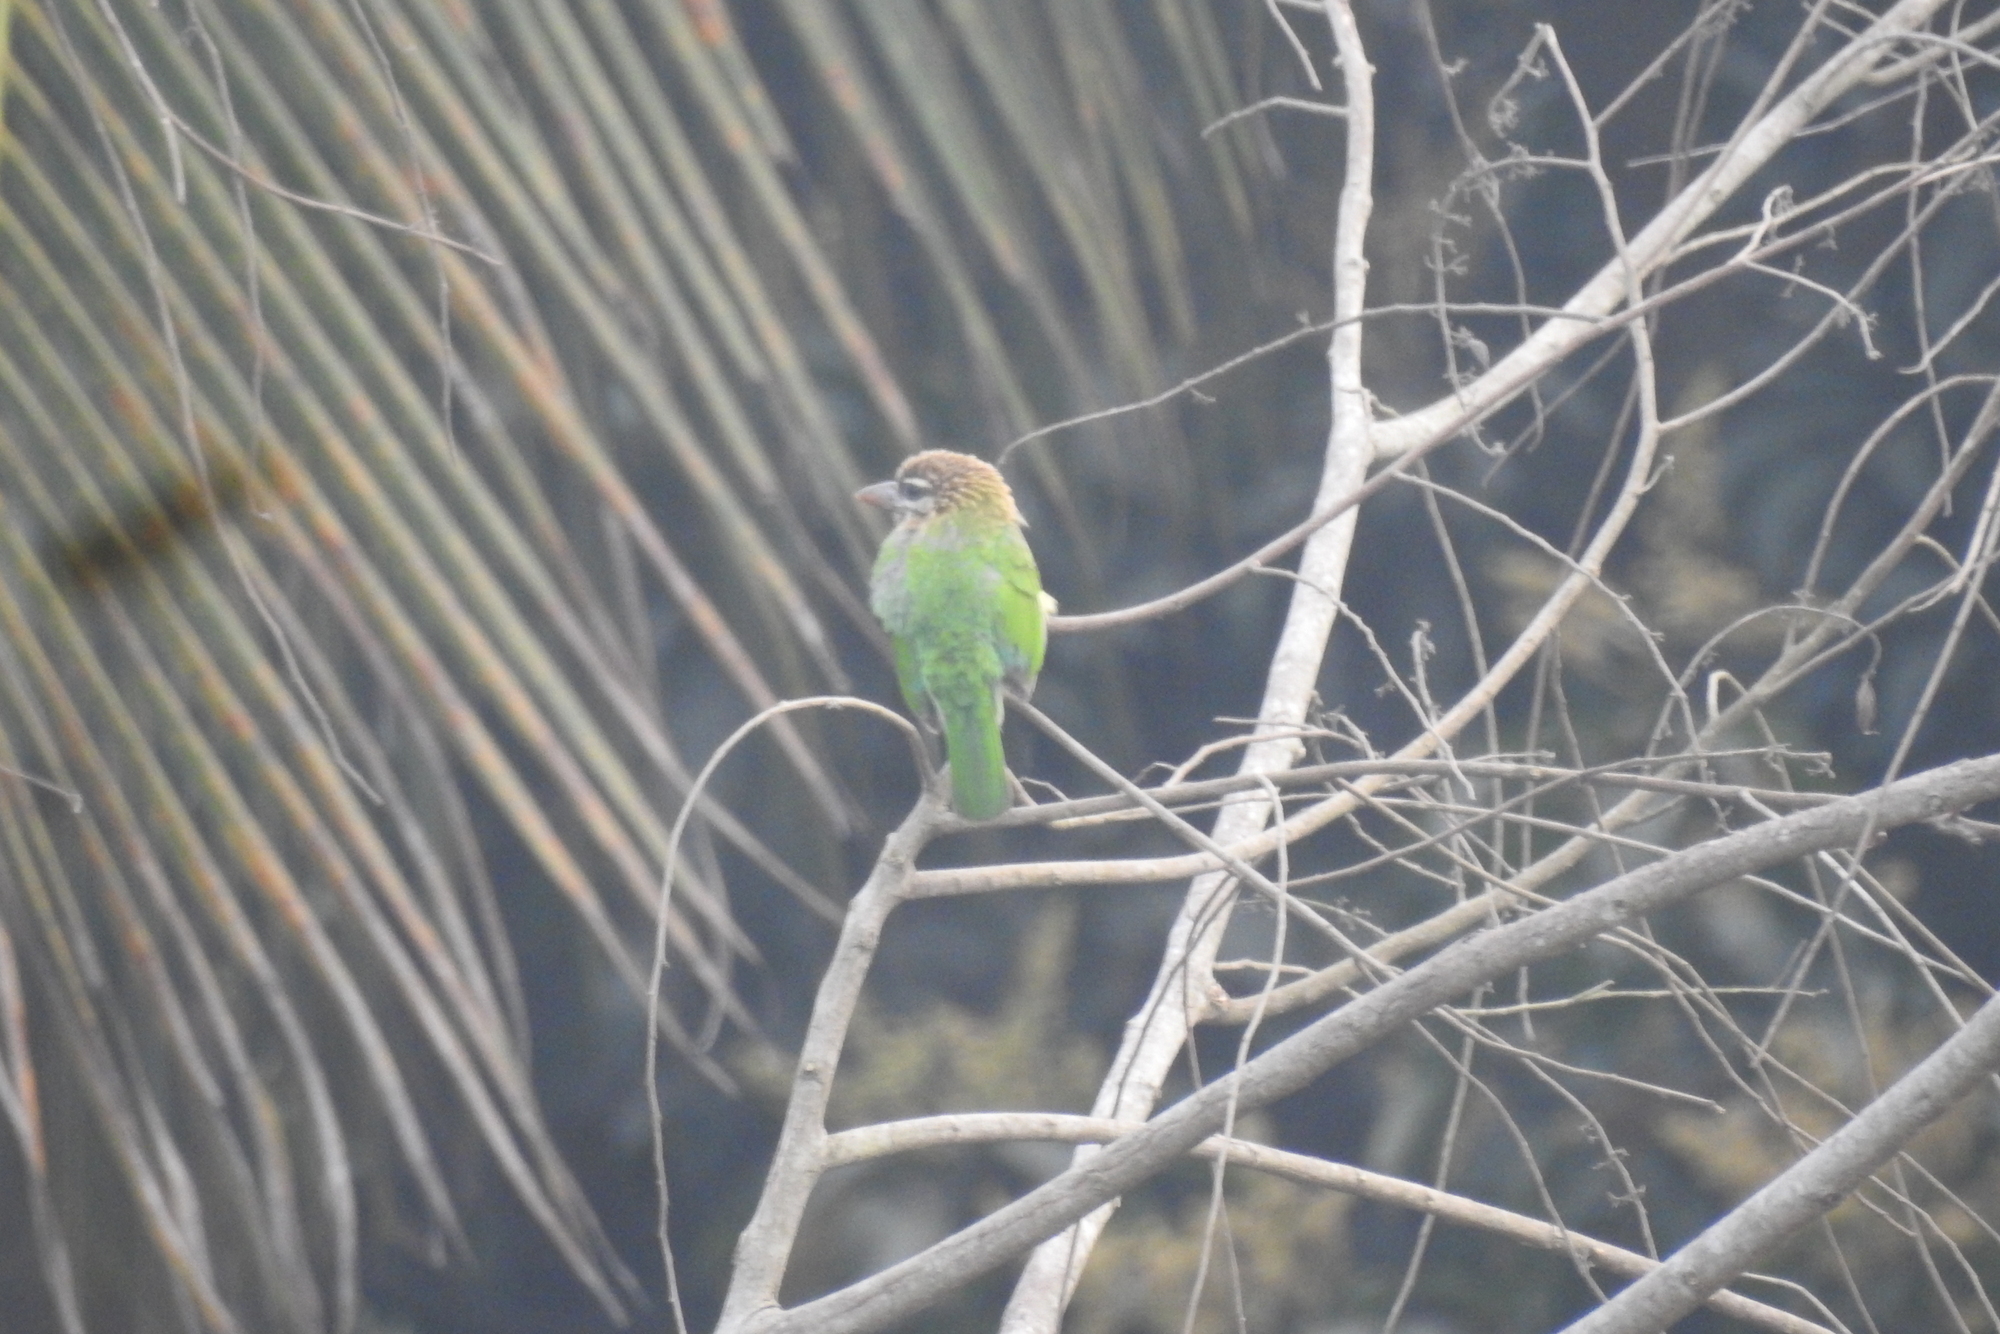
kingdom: Animalia
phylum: Chordata
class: Aves
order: Piciformes
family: Megalaimidae
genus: Psilopogon
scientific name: Psilopogon viridis
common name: White-cheeked barbet
